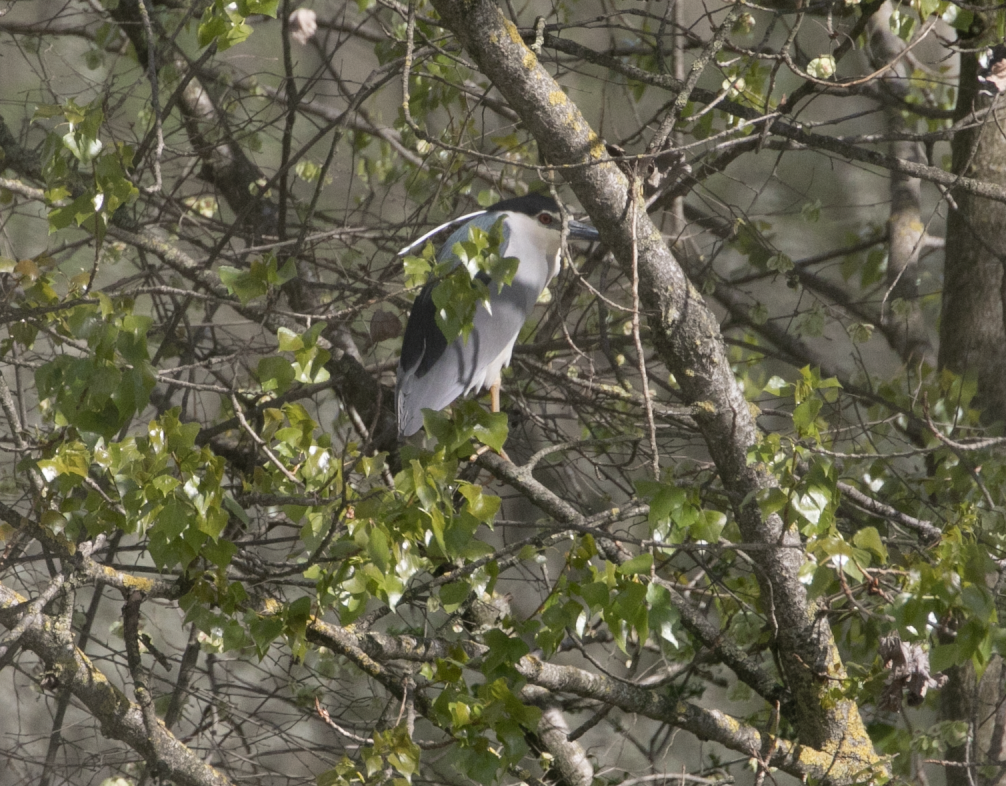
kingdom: Animalia
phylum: Chordata
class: Aves
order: Pelecaniformes
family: Ardeidae
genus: Nycticorax
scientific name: Nycticorax nycticorax
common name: Black-crowned night heron
